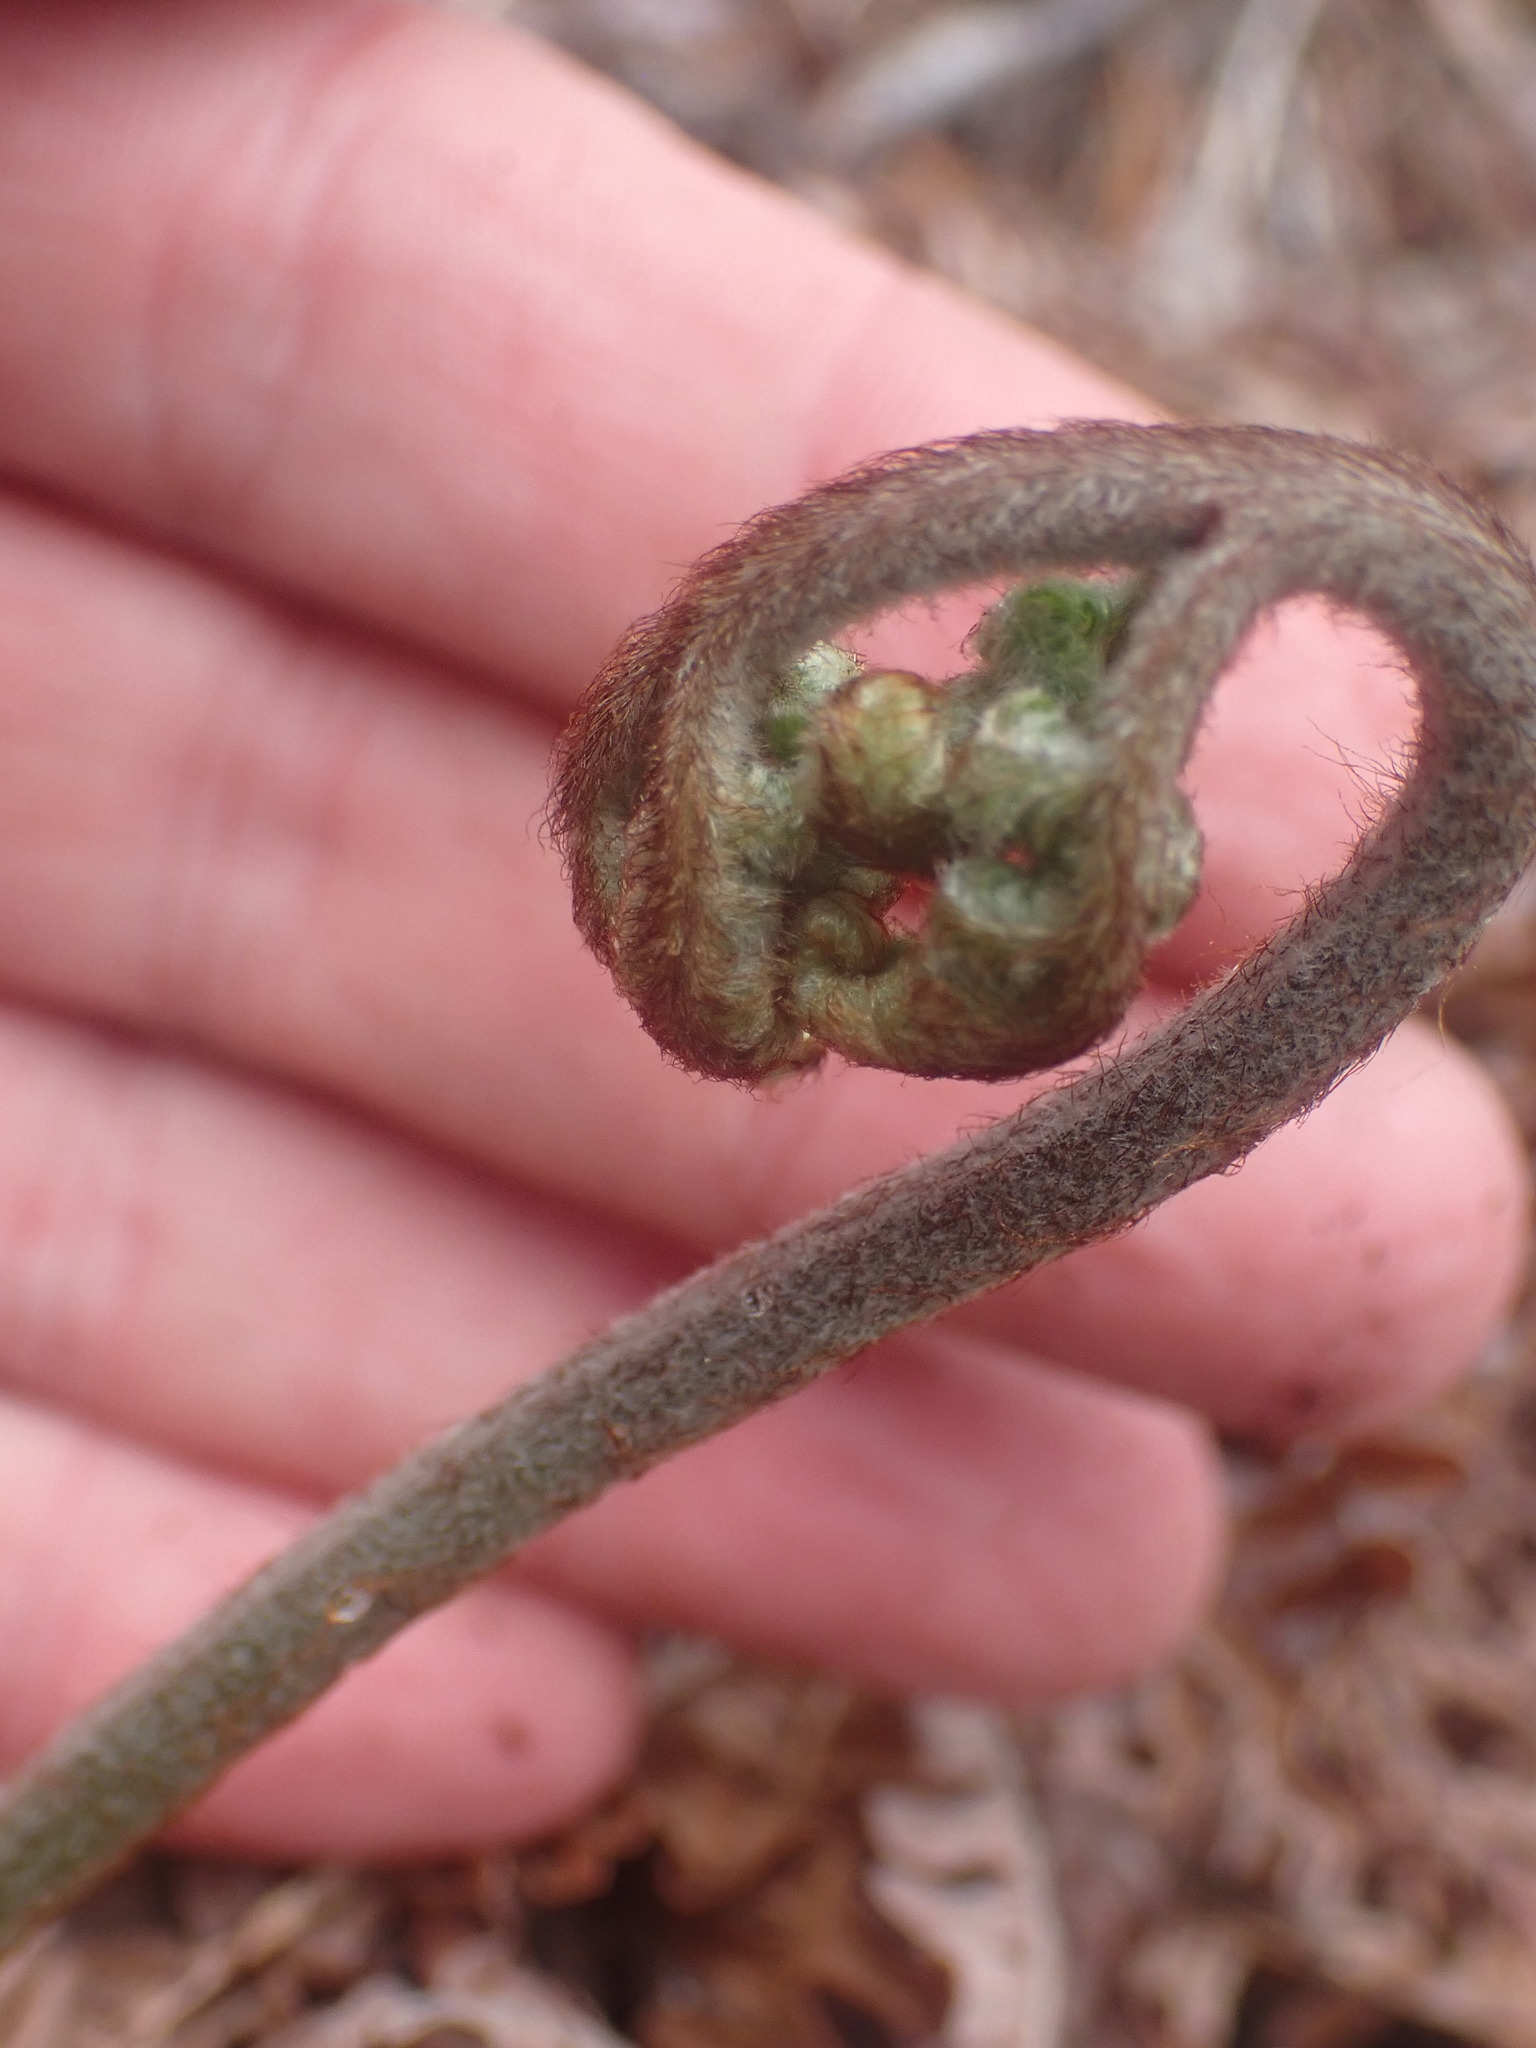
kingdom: Plantae
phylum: Tracheophyta
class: Polypodiopsida
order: Polypodiales
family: Dennstaedtiaceae
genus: Pteridium
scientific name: Pteridium aquilinum
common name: Bracken
